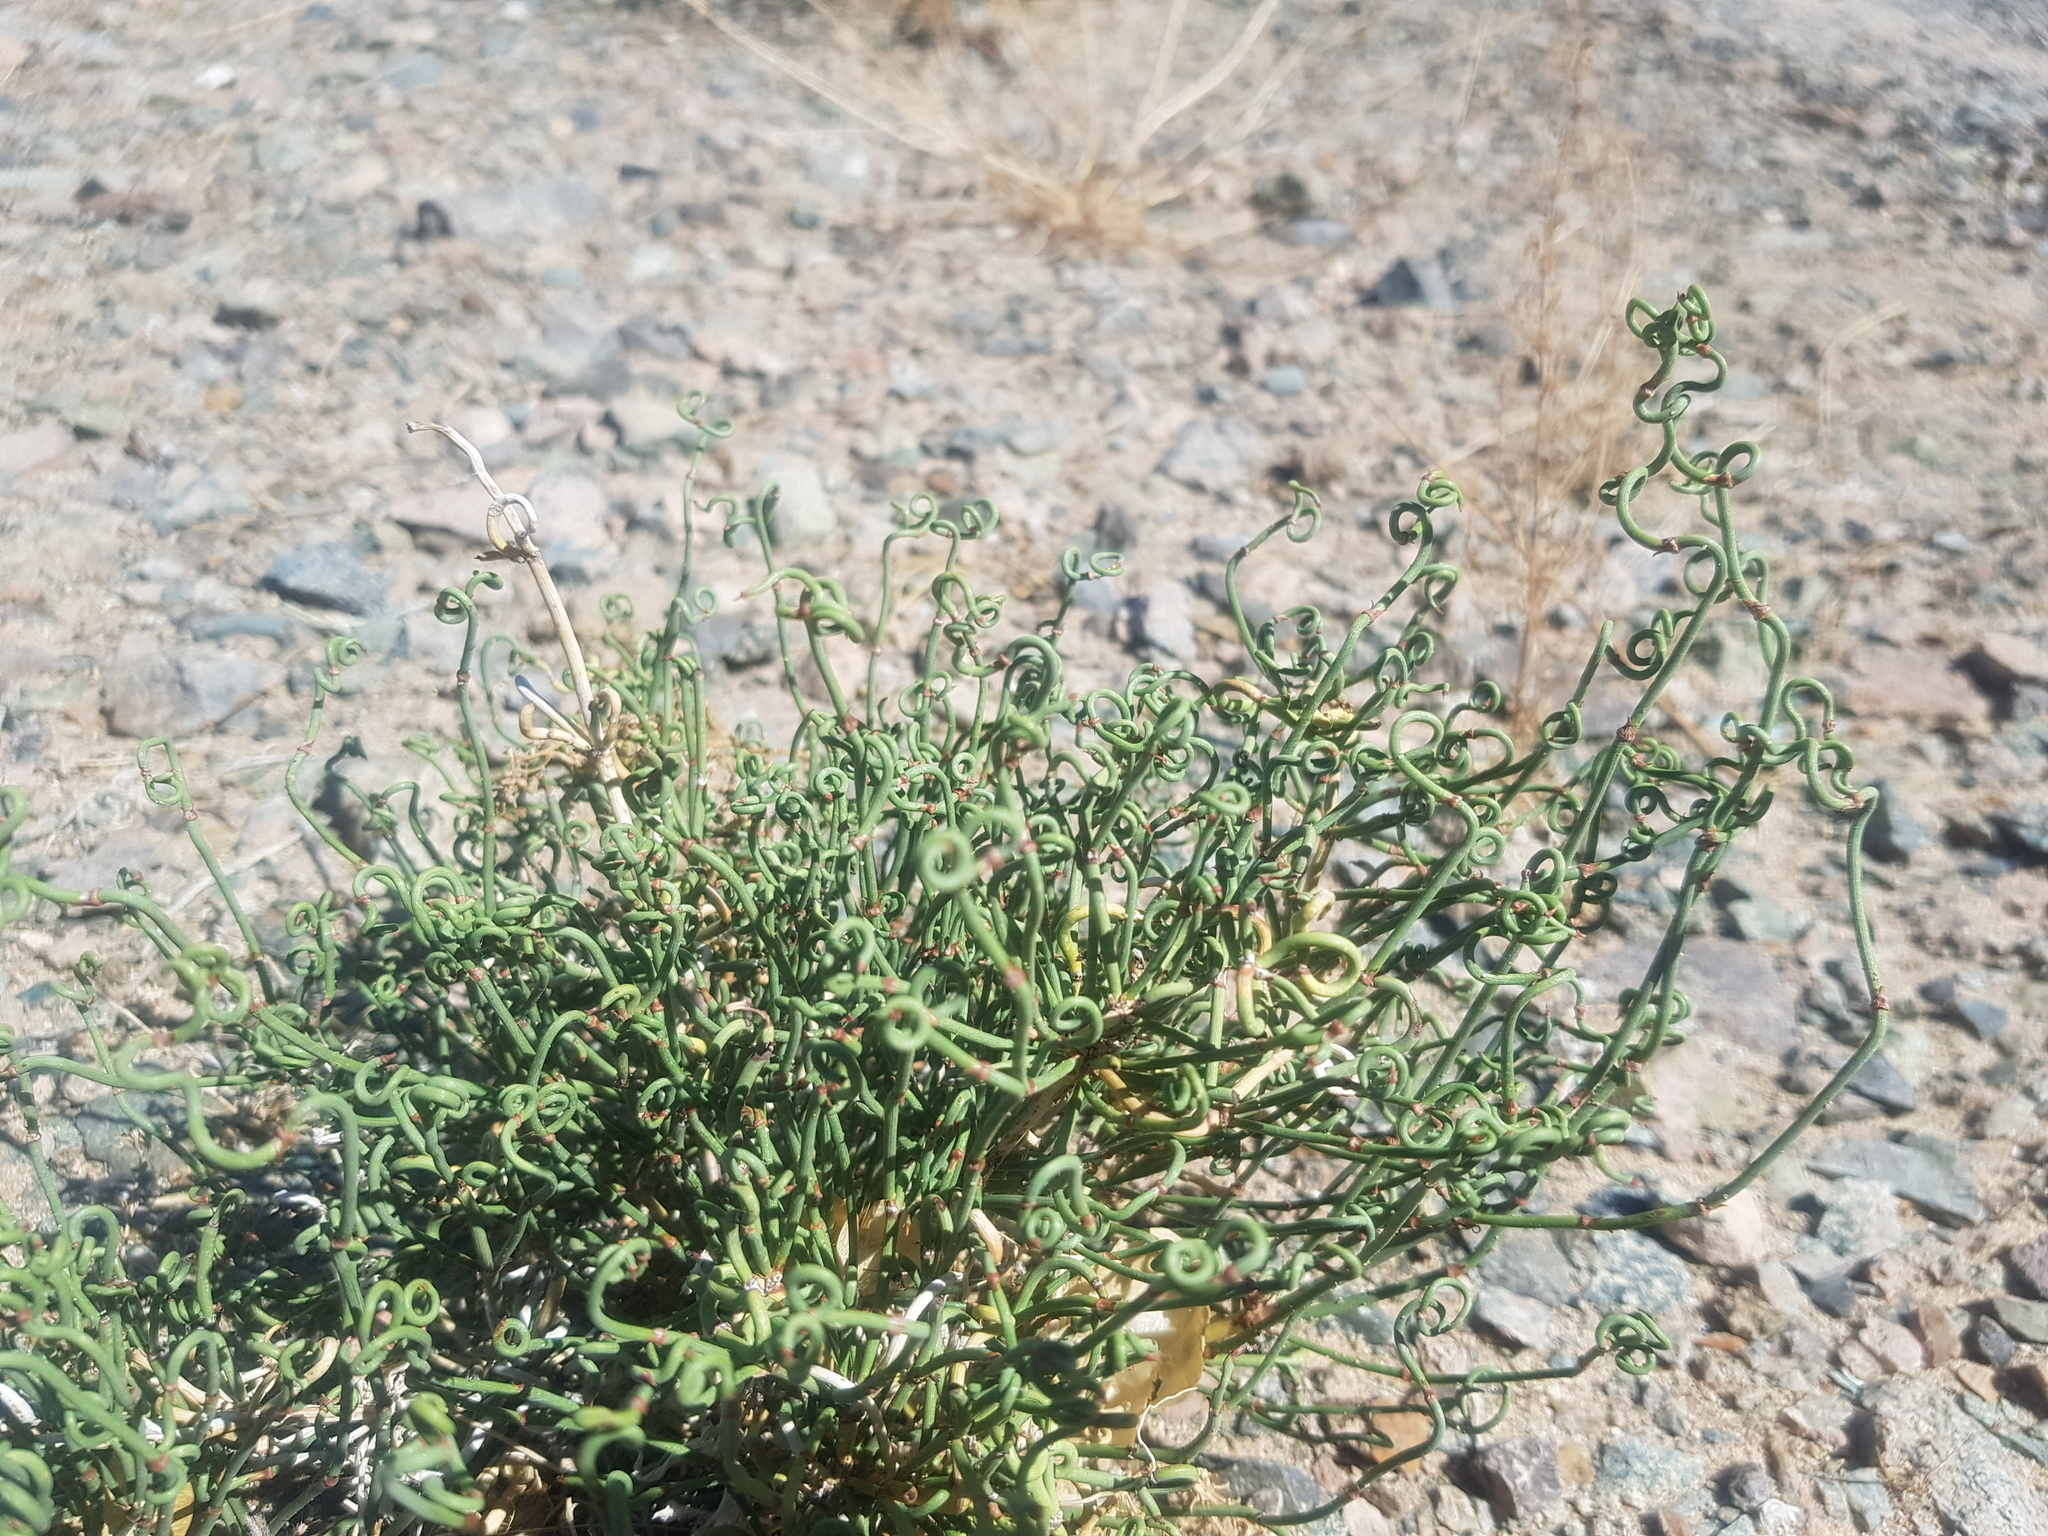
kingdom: Plantae
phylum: Tracheophyta
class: Gnetopsida
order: Ephedrales
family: Ephedraceae
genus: Ephedra
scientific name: Ephedra przewalskii
